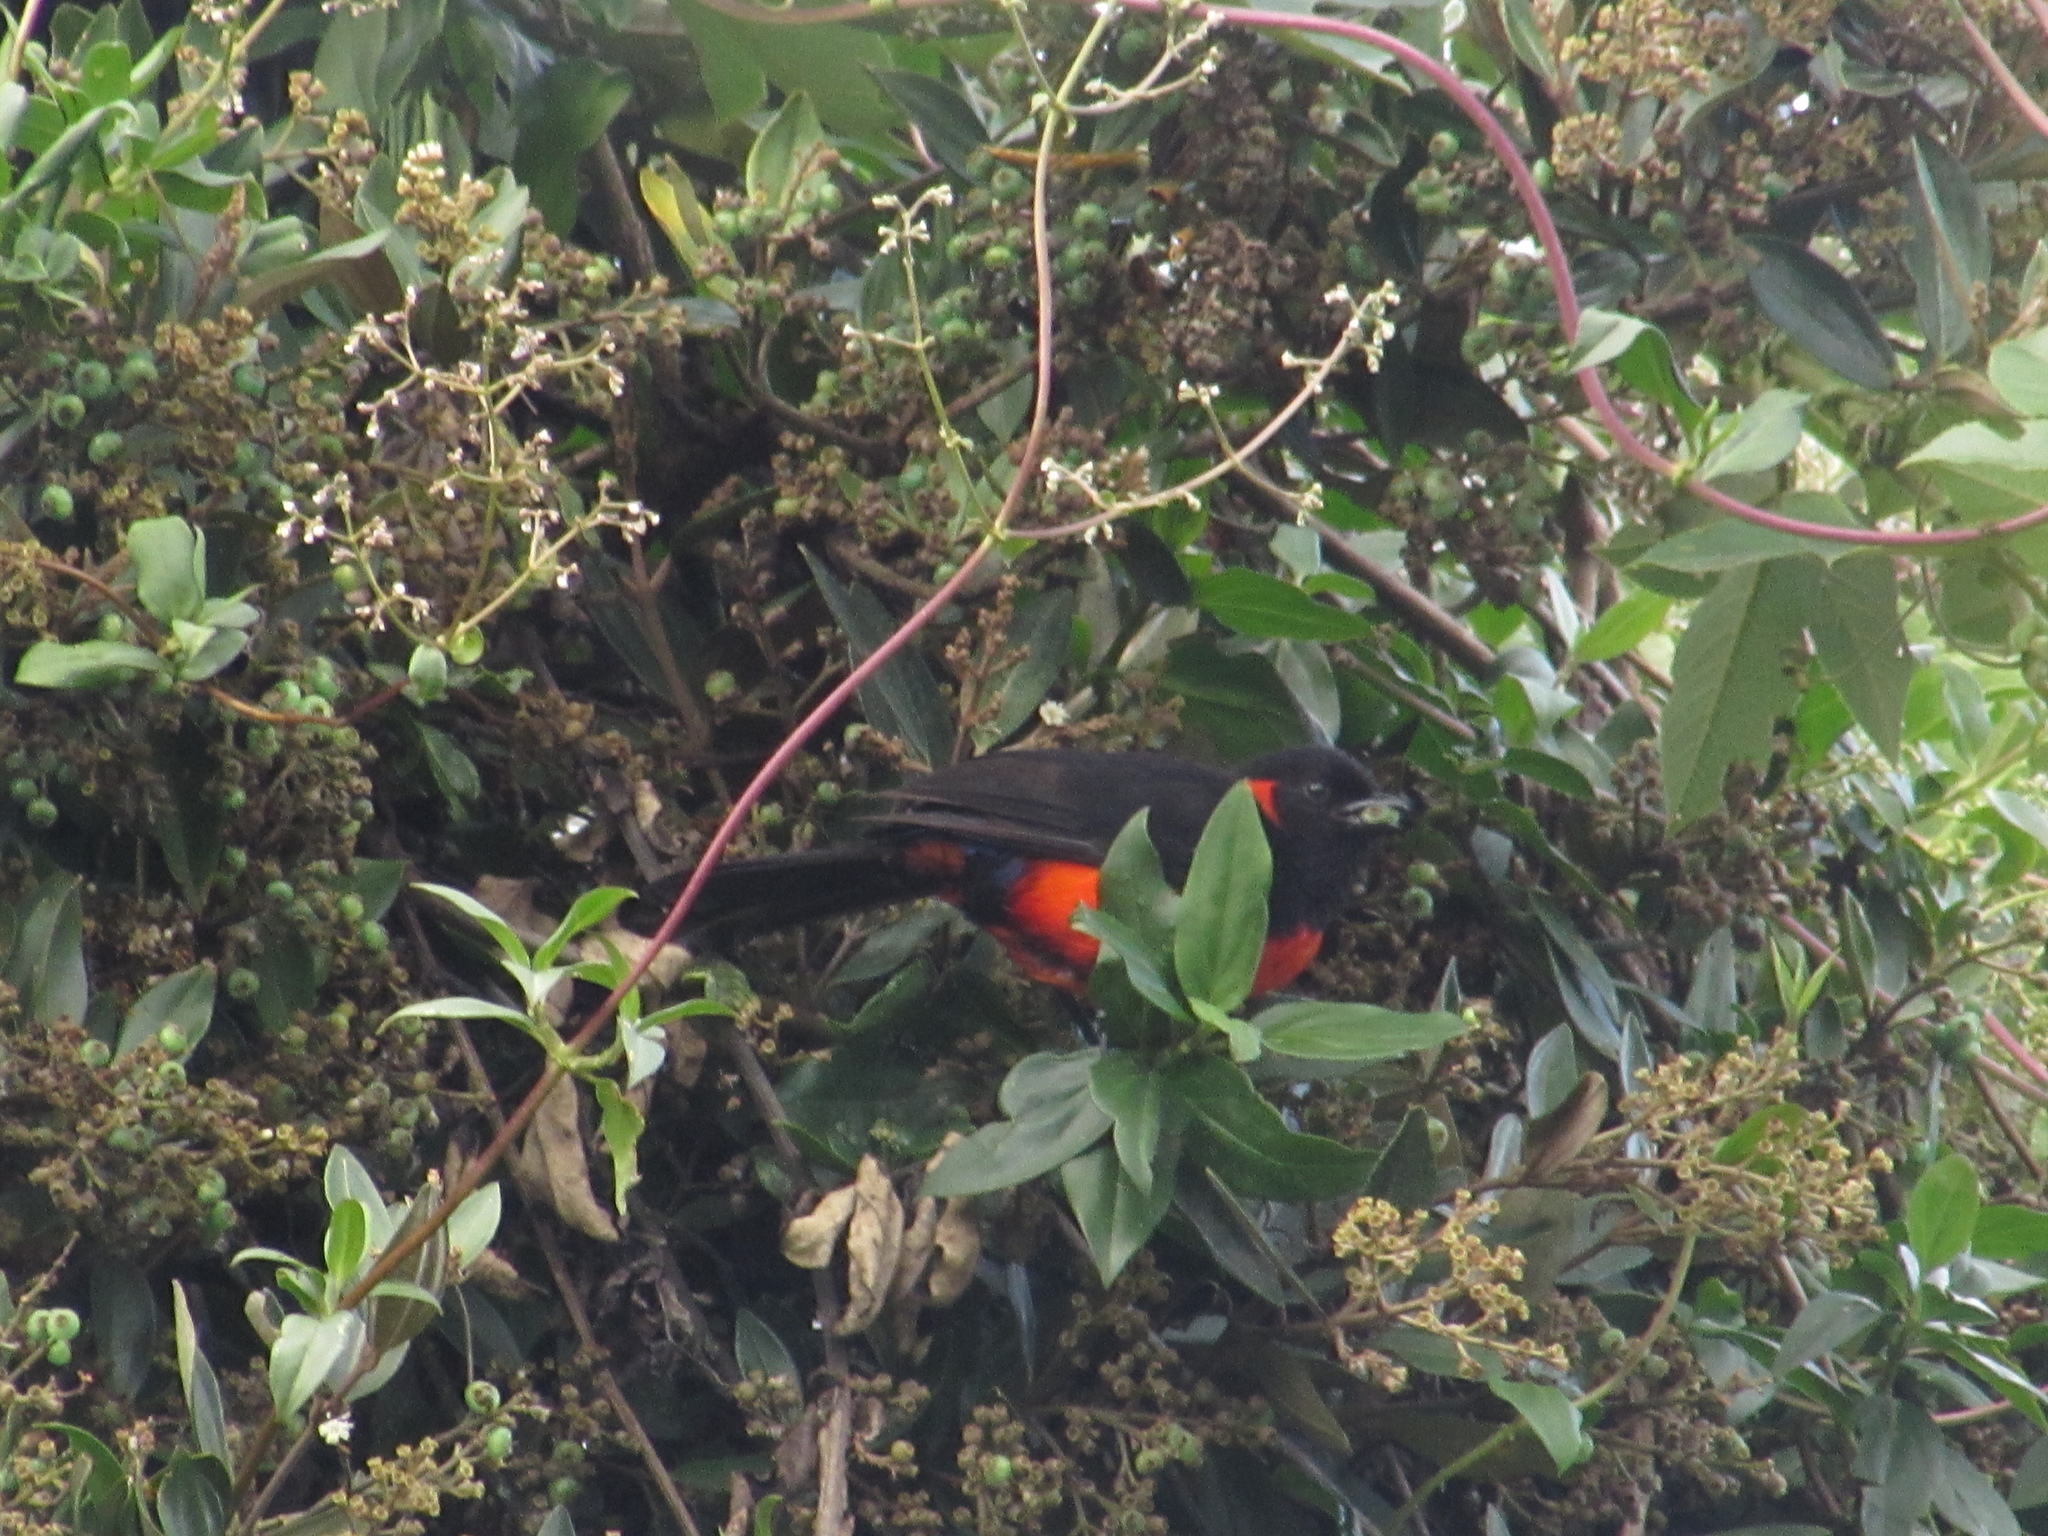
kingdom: Animalia
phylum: Chordata
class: Aves
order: Passeriformes
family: Thraupidae
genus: Anisognathus
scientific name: Anisognathus igniventris
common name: Scarlet-bellied mountain tanager
